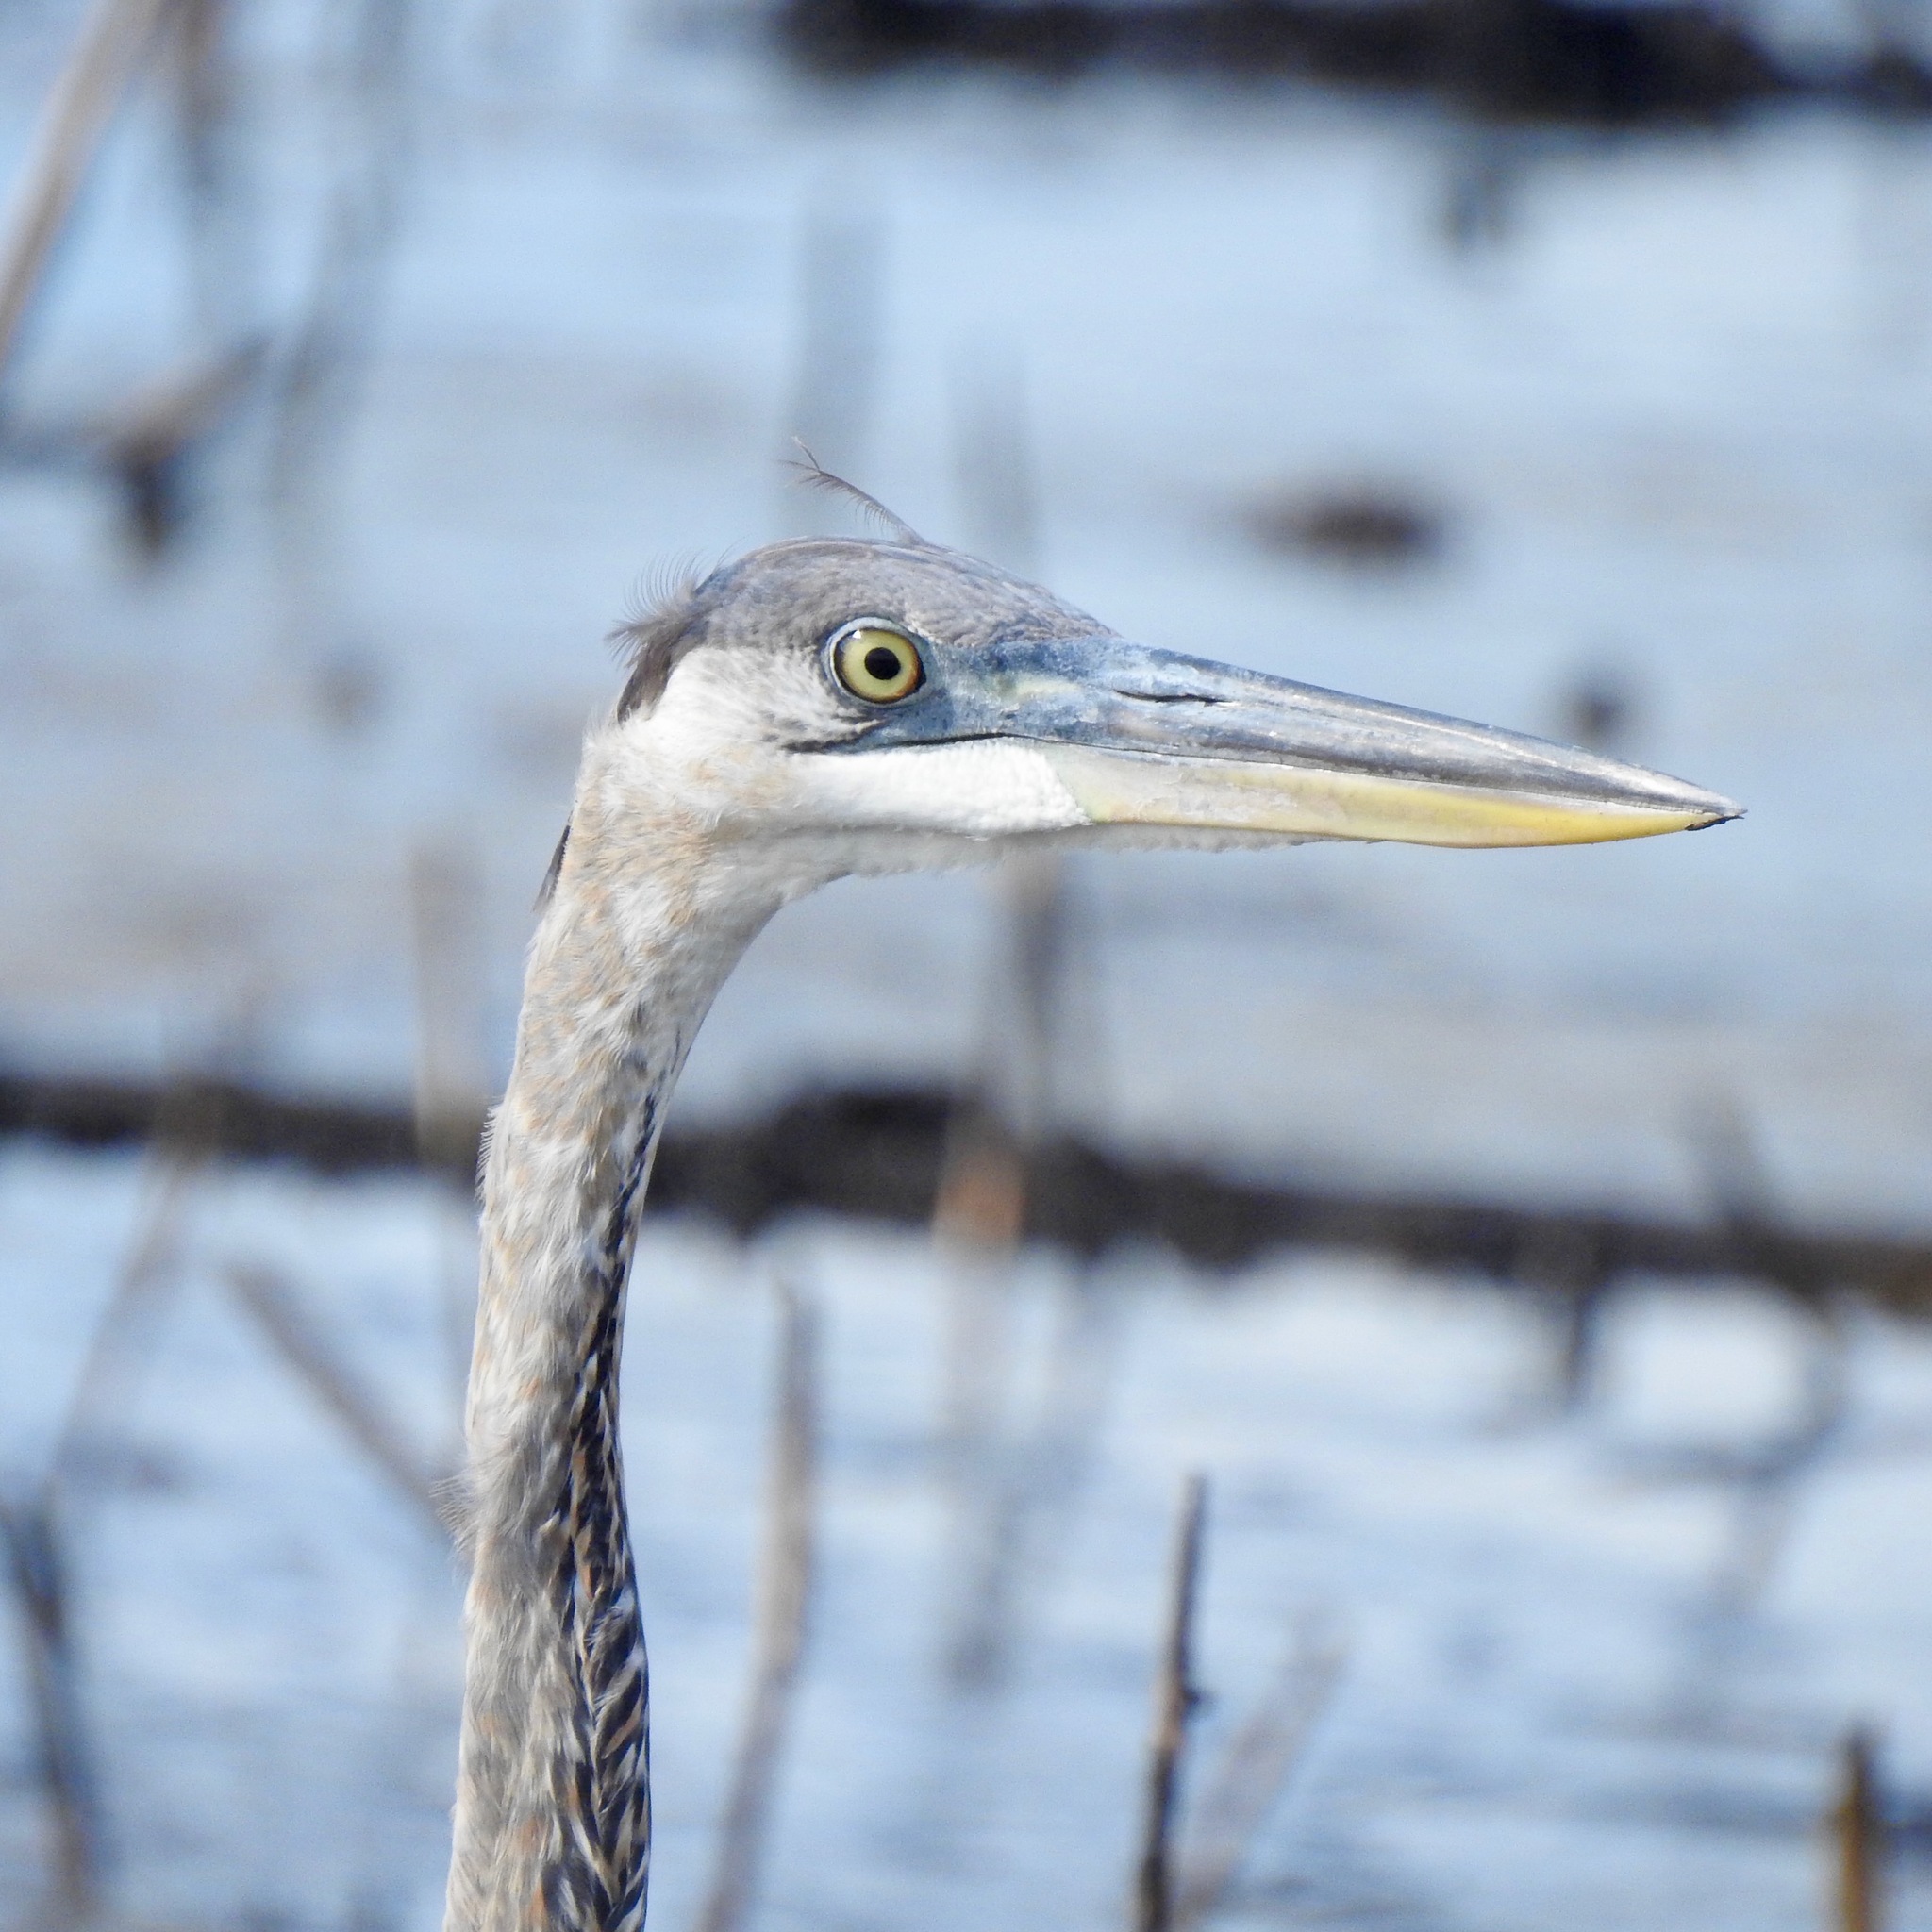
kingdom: Animalia
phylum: Chordata
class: Aves
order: Pelecaniformes
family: Ardeidae
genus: Ardea
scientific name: Ardea herodias
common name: Great blue heron
